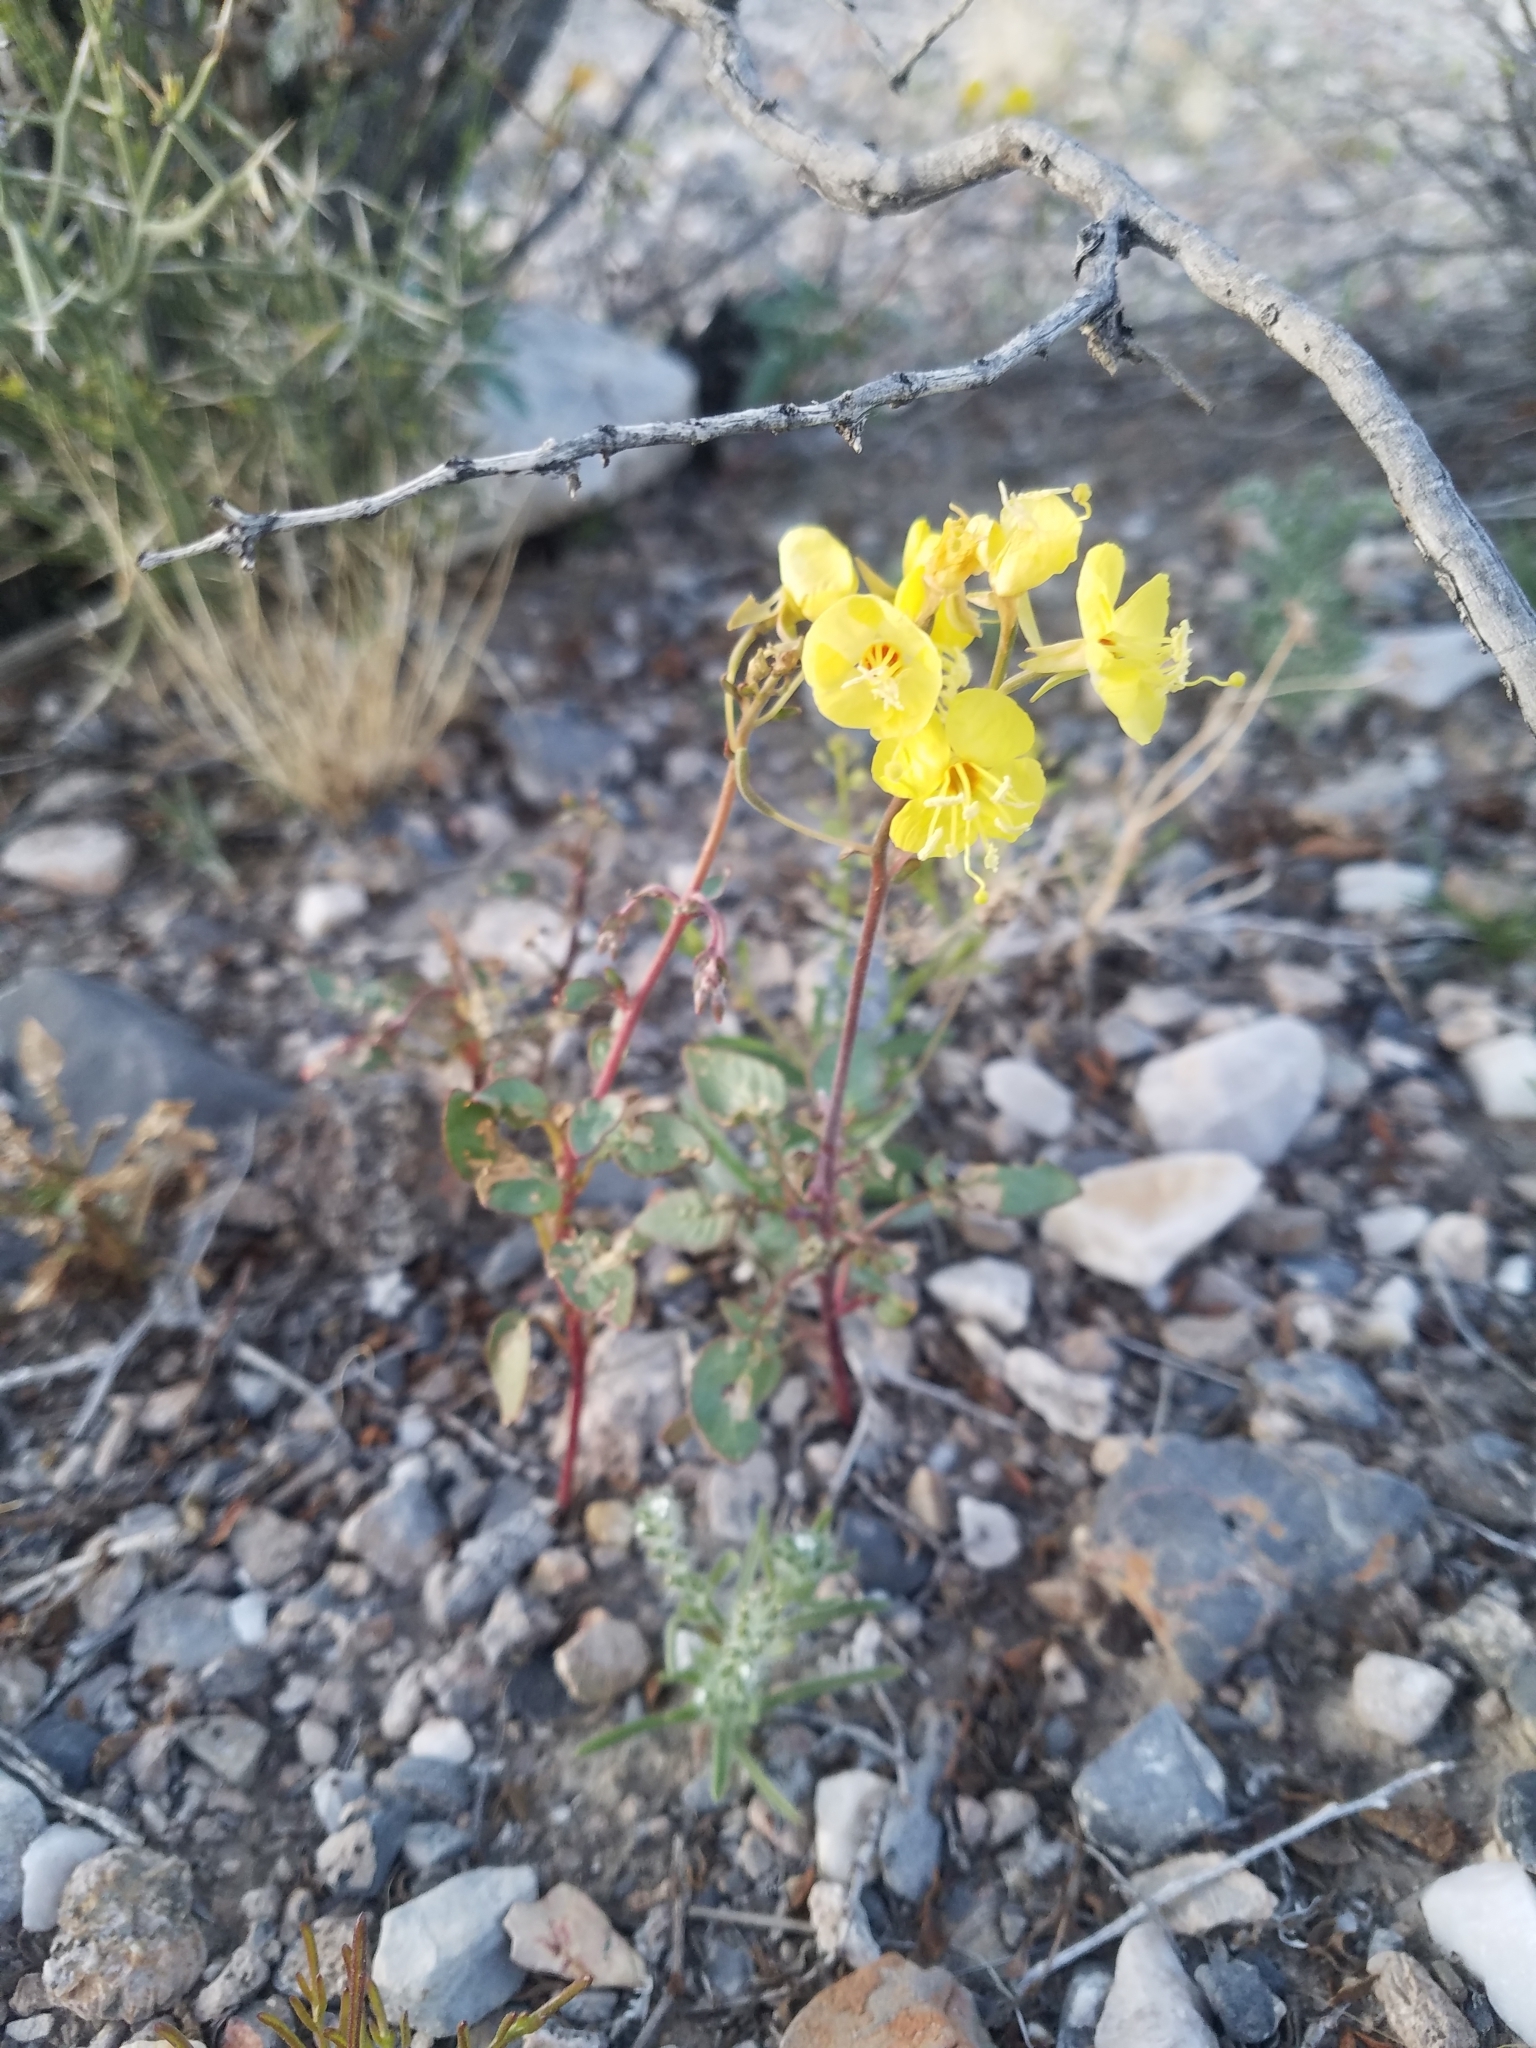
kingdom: Plantae
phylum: Tracheophyta
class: Magnoliopsida
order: Myrtales
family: Onagraceae
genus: Chylismia
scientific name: Chylismia brevipes
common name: Yellow cups
